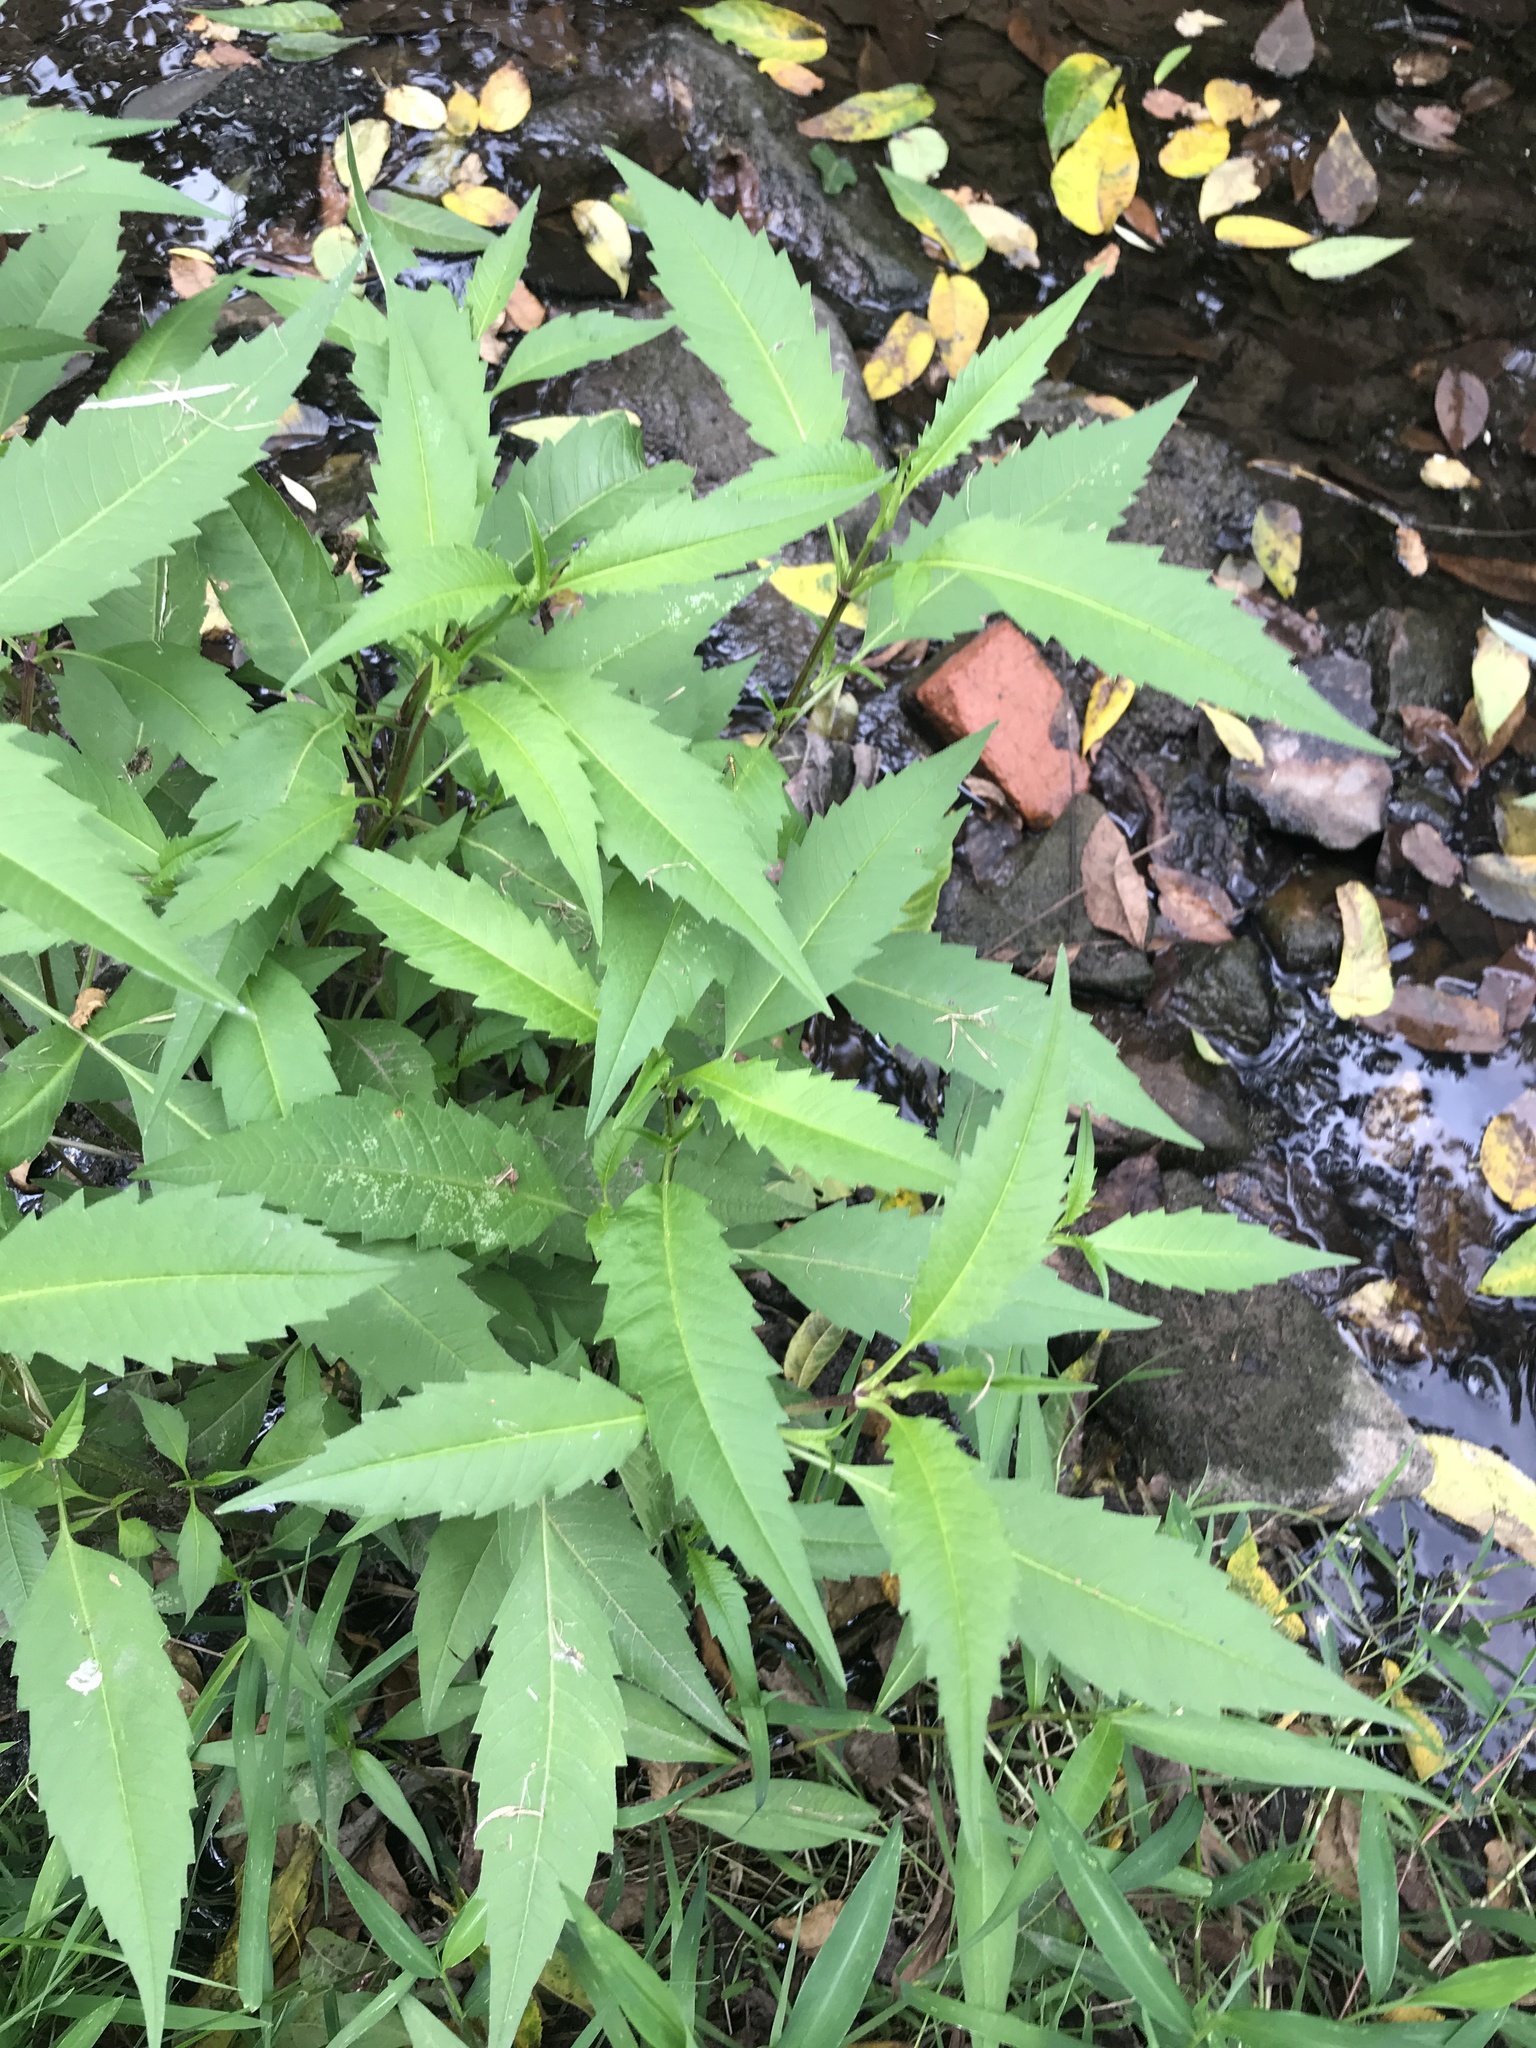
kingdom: Plantae
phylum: Tracheophyta
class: Magnoliopsida
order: Asterales
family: Asteraceae
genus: Bidens
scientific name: Bidens connata
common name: London bur-marigold
